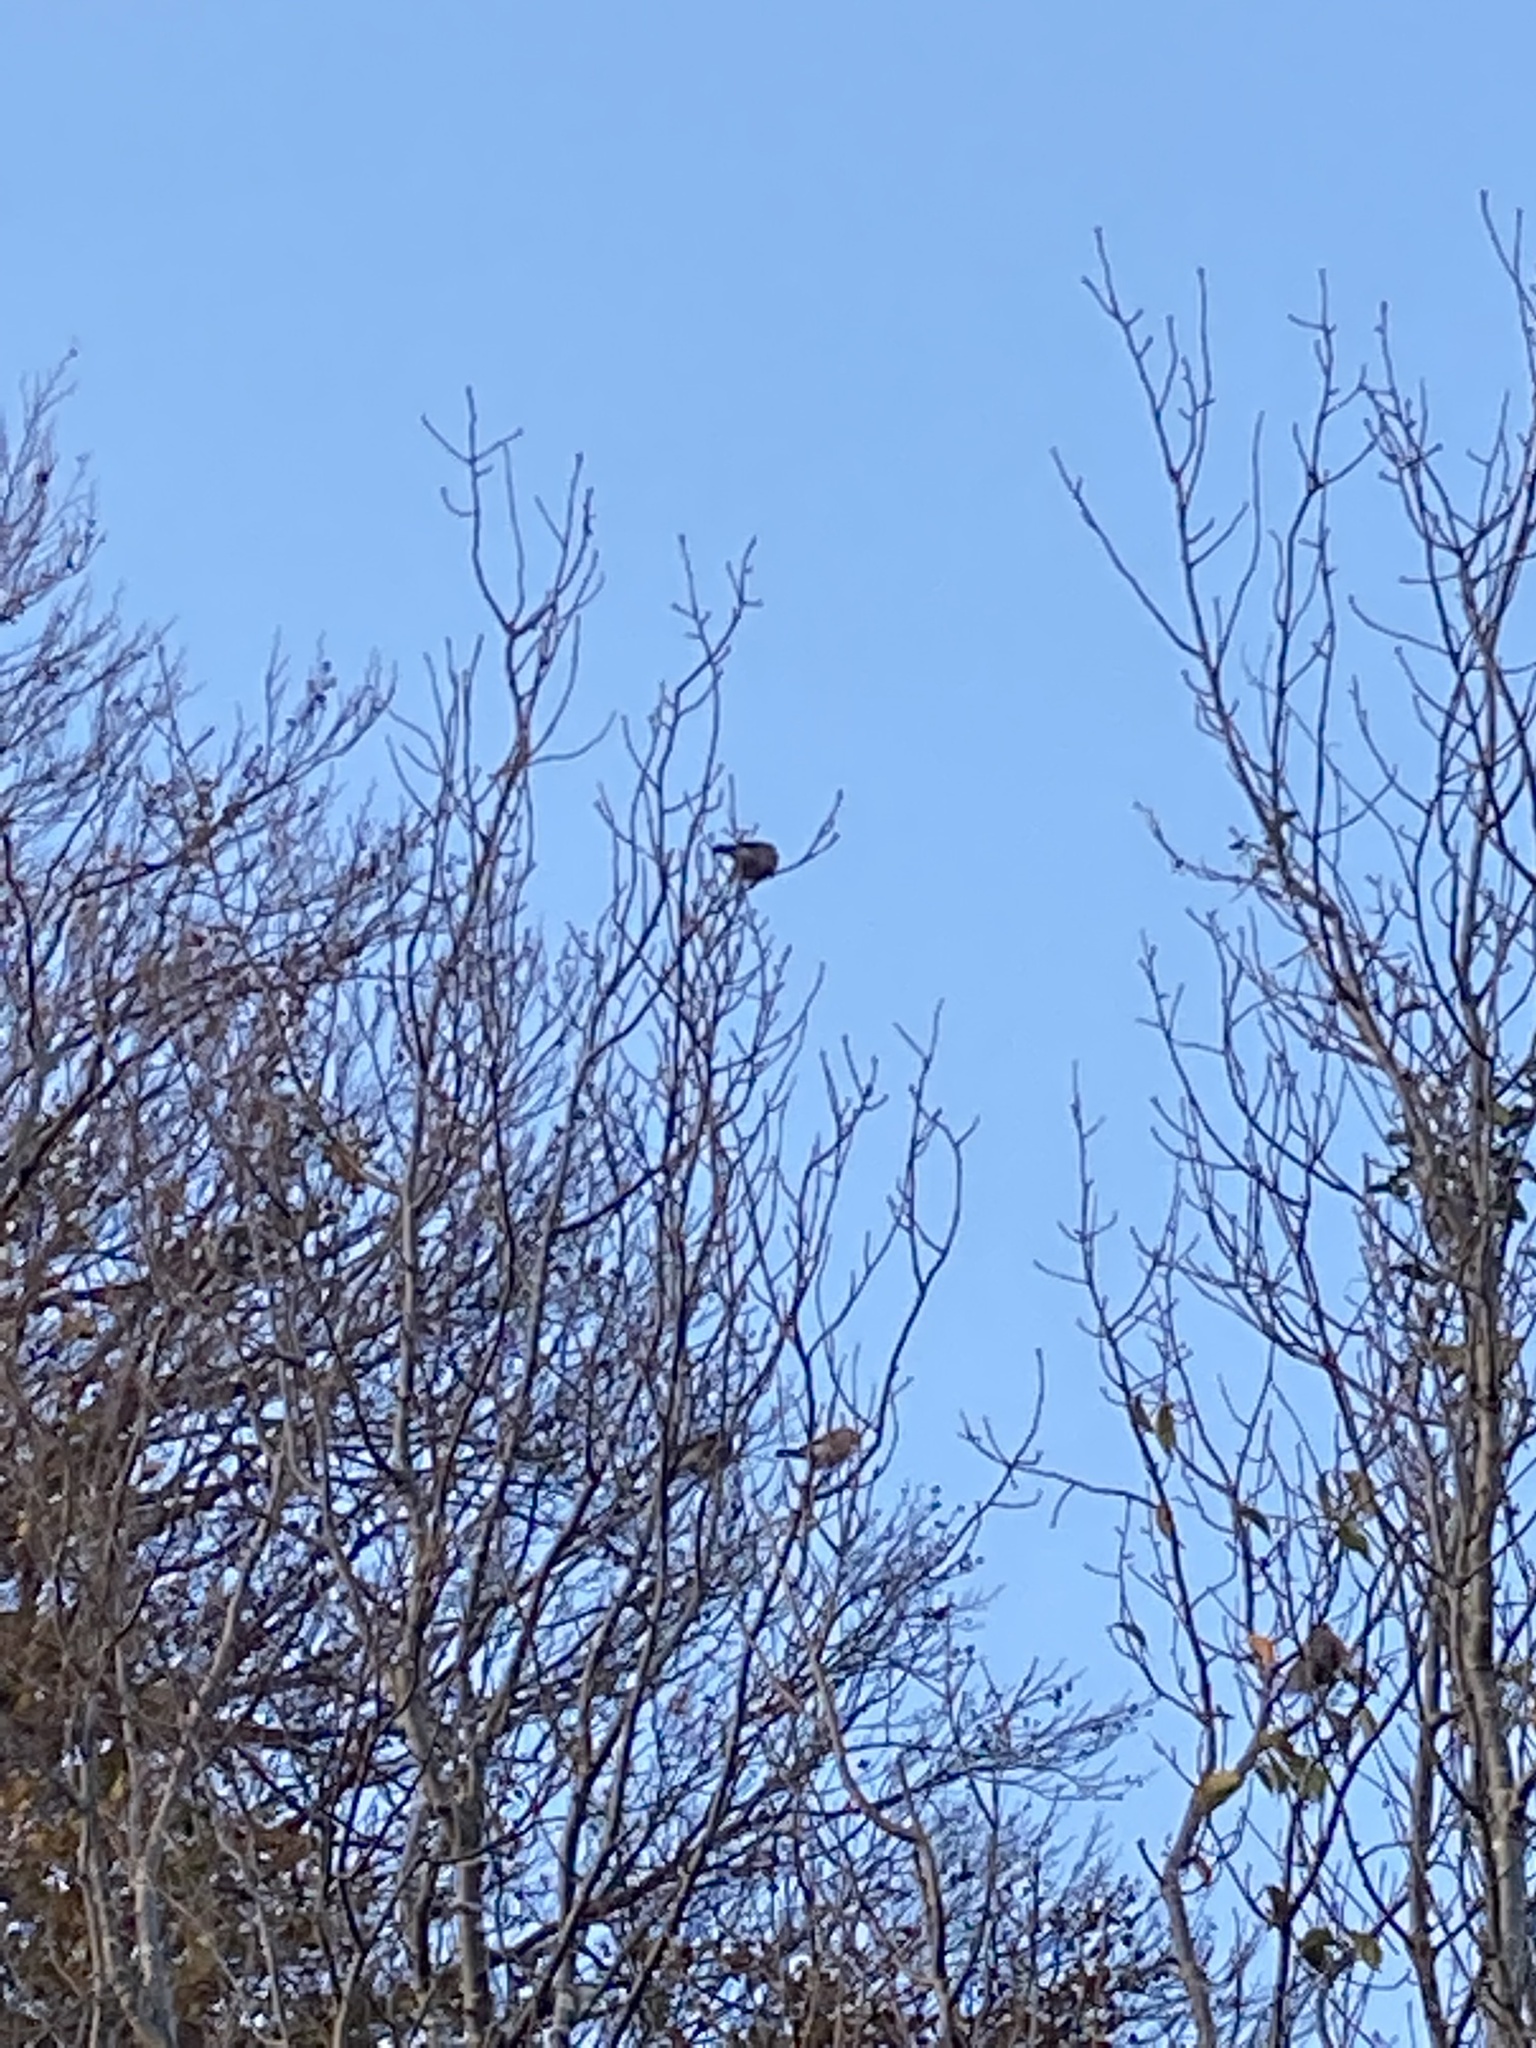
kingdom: Animalia
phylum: Chordata
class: Aves
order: Passeriformes
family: Fringillidae
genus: Pyrrhula
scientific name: Pyrrhula pyrrhula
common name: Eurasian bullfinch
